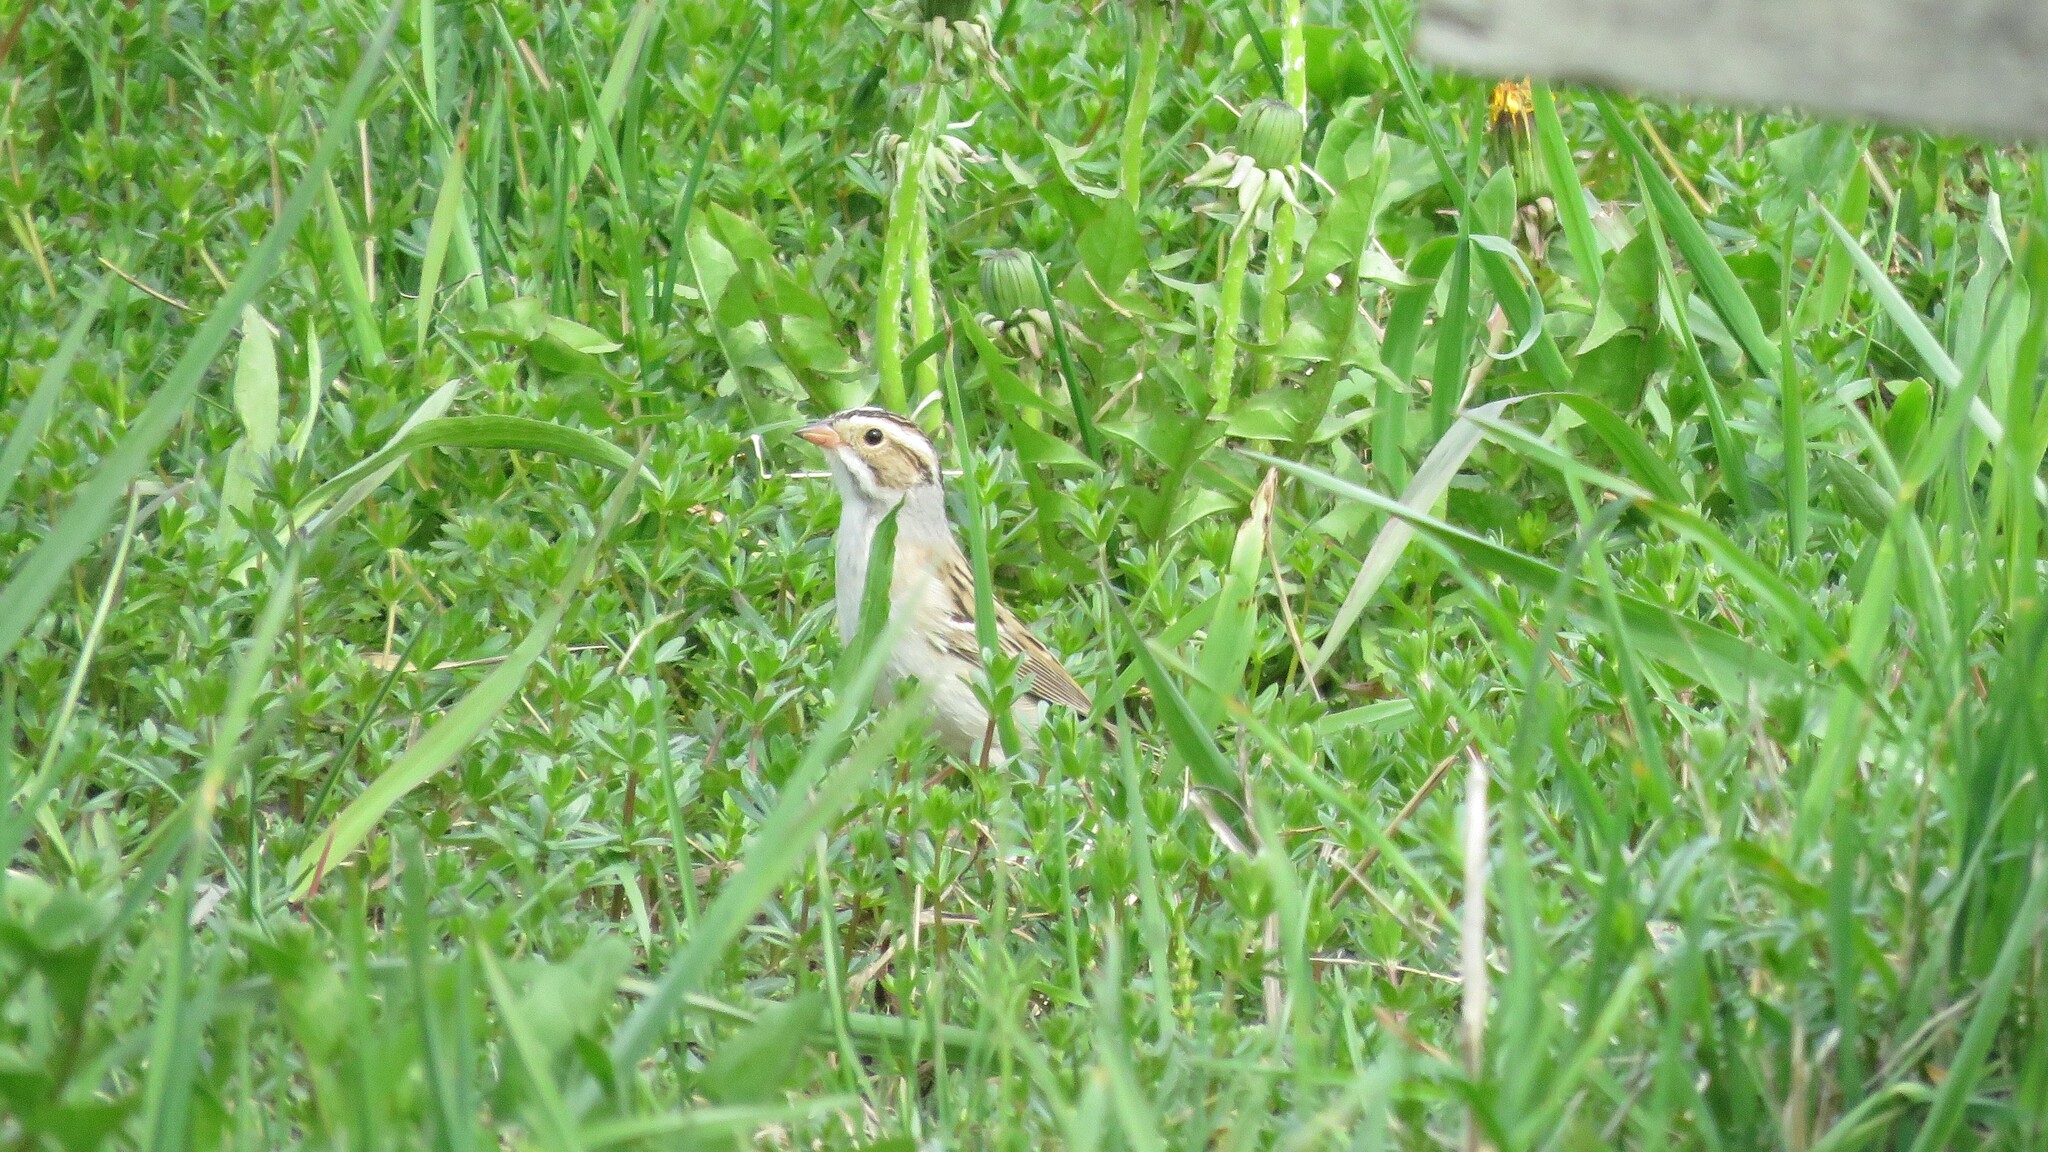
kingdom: Animalia
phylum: Chordata
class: Aves
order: Passeriformes
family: Passerellidae
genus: Spizella
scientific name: Spizella pallida
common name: Clay-colored sparrow
